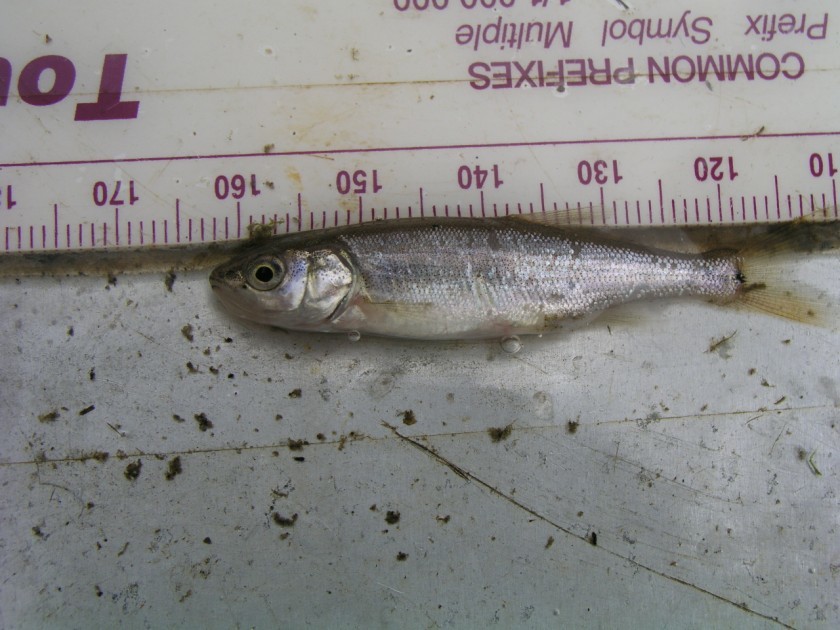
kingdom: Animalia
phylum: Chordata
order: Cypriniformes
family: Cyprinidae
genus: Mylocheilus
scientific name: Mylocheilus caurinus
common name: Peamouth
